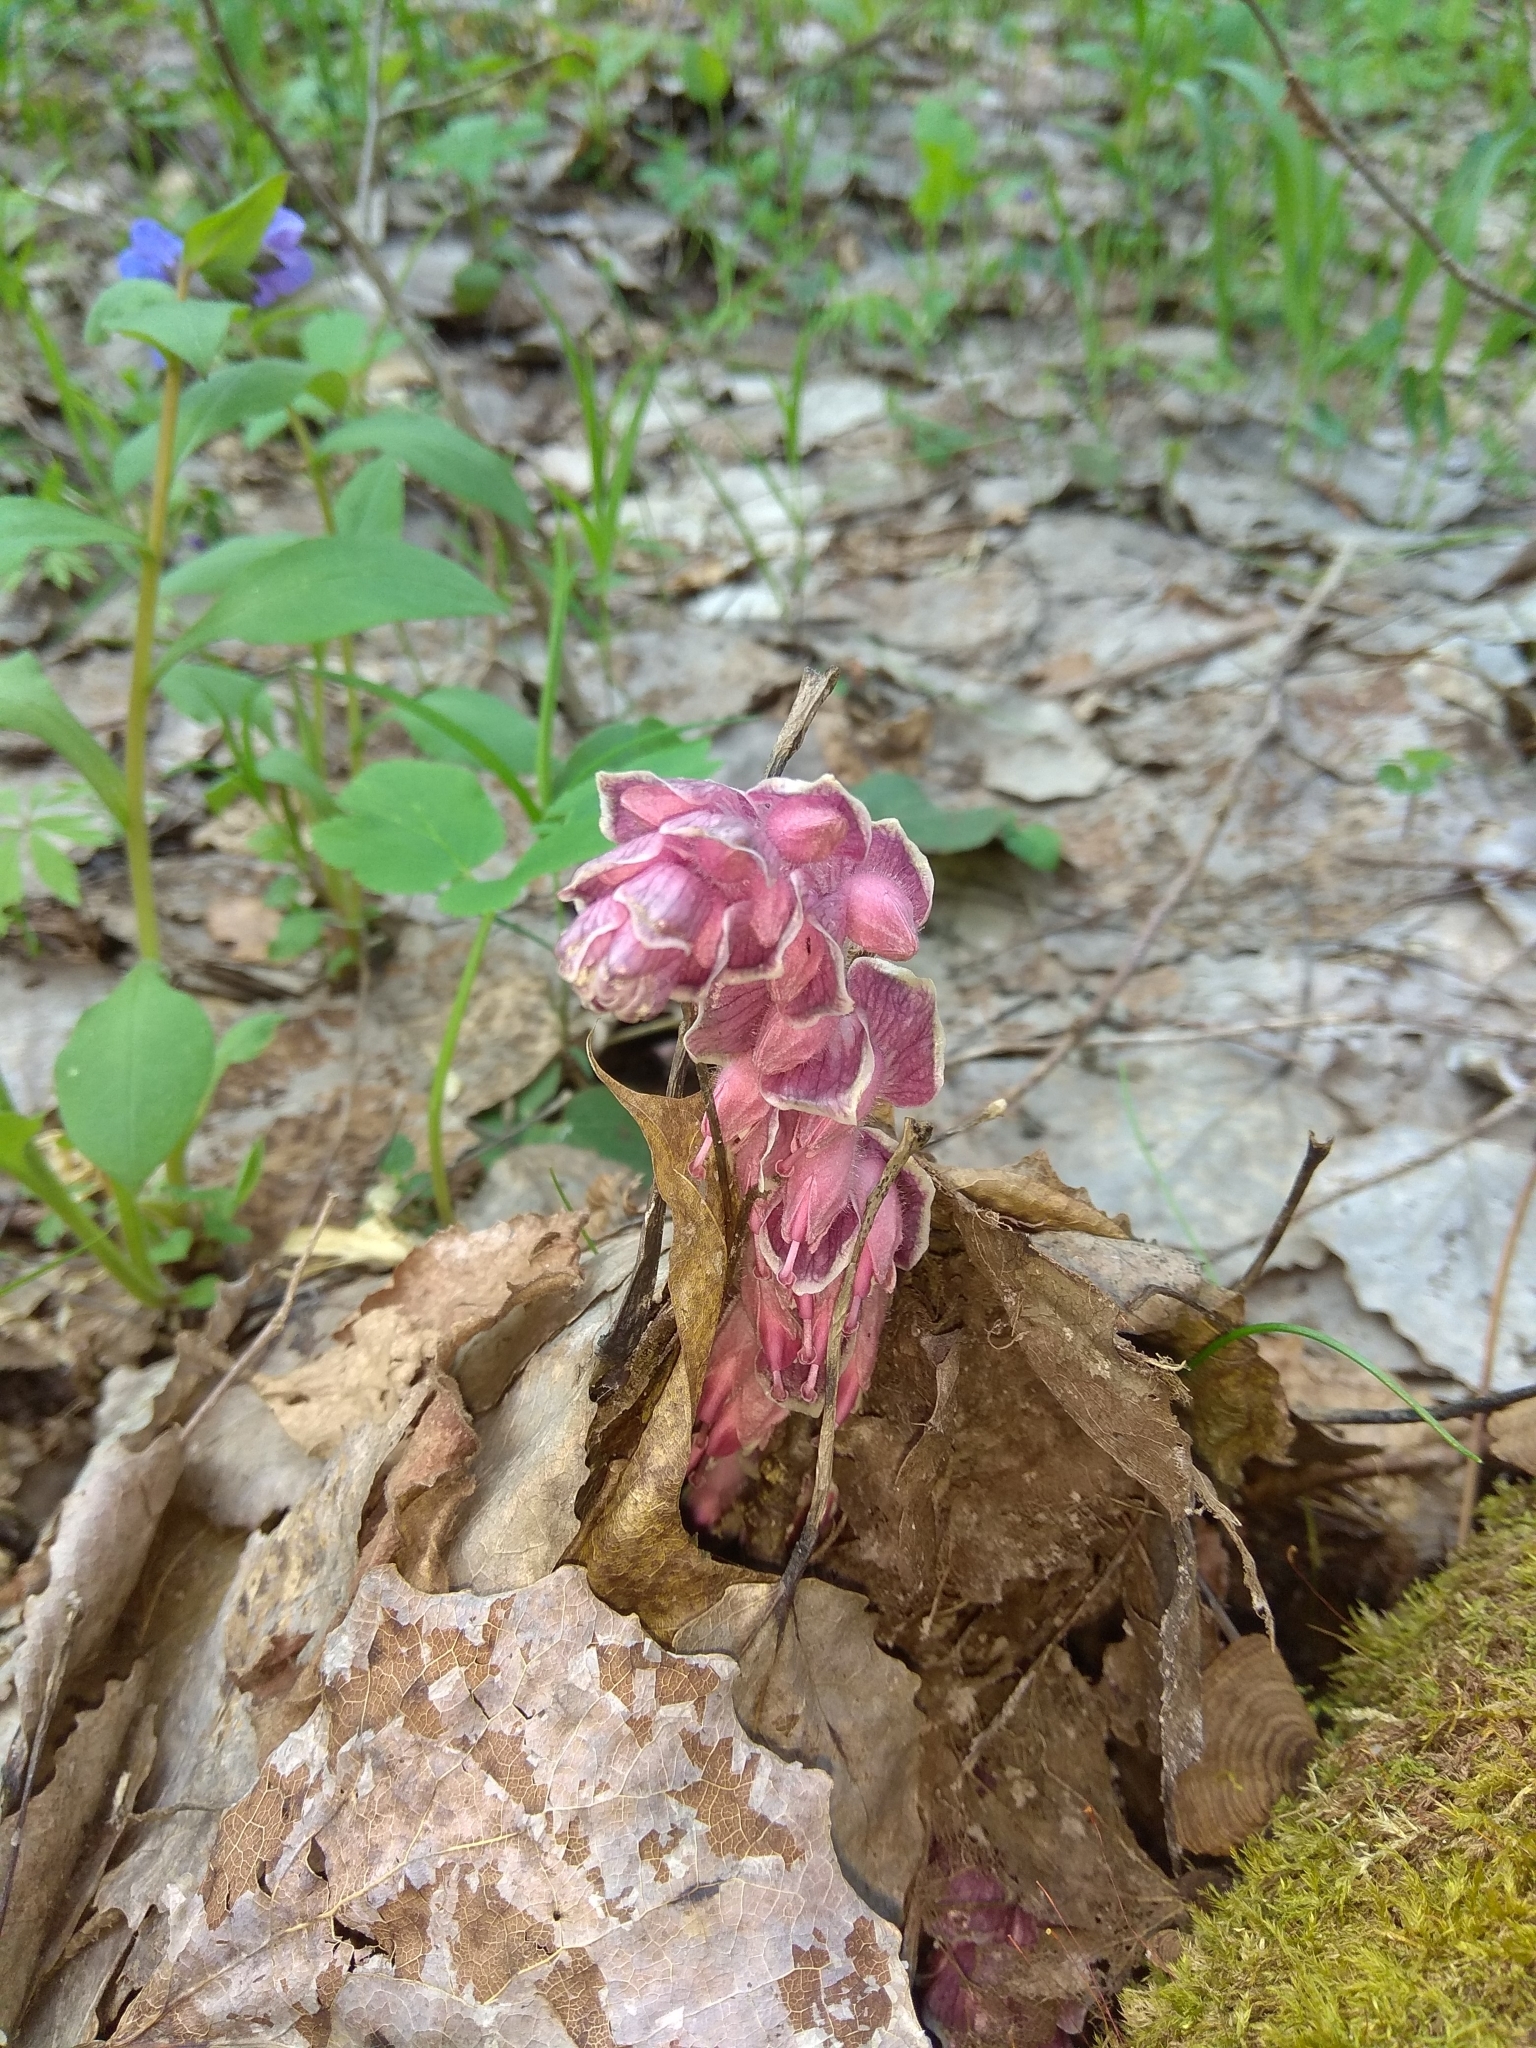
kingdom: Plantae
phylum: Tracheophyta
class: Magnoliopsida
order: Lamiales
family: Orobanchaceae
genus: Lathraea
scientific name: Lathraea squamaria
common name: Toothwort
